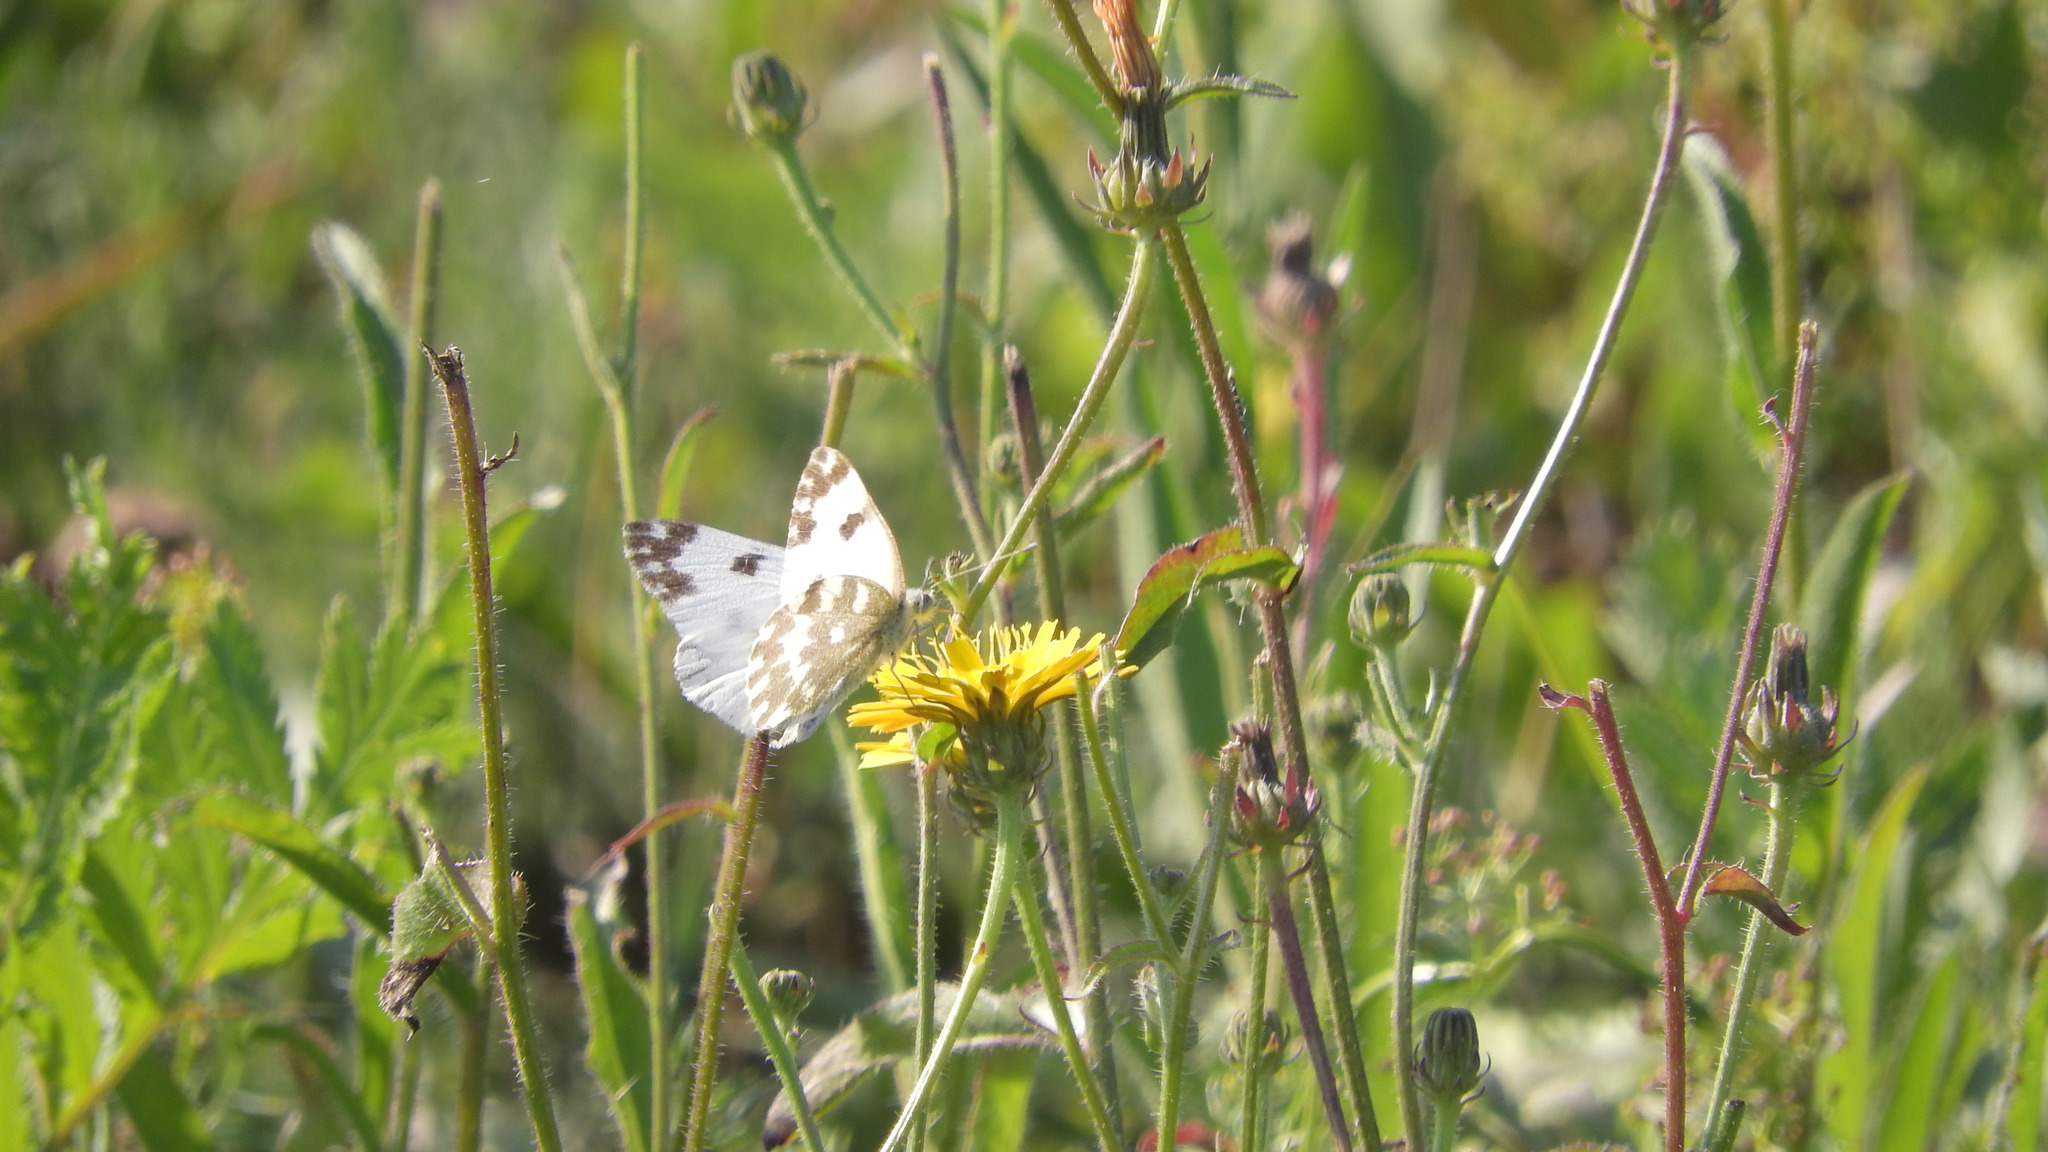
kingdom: Animalia
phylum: Arthropoda
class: Insecta
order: Lepidoptera
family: Pieridae
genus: Pontia
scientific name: Pontia edusa
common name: Eastern bath white
